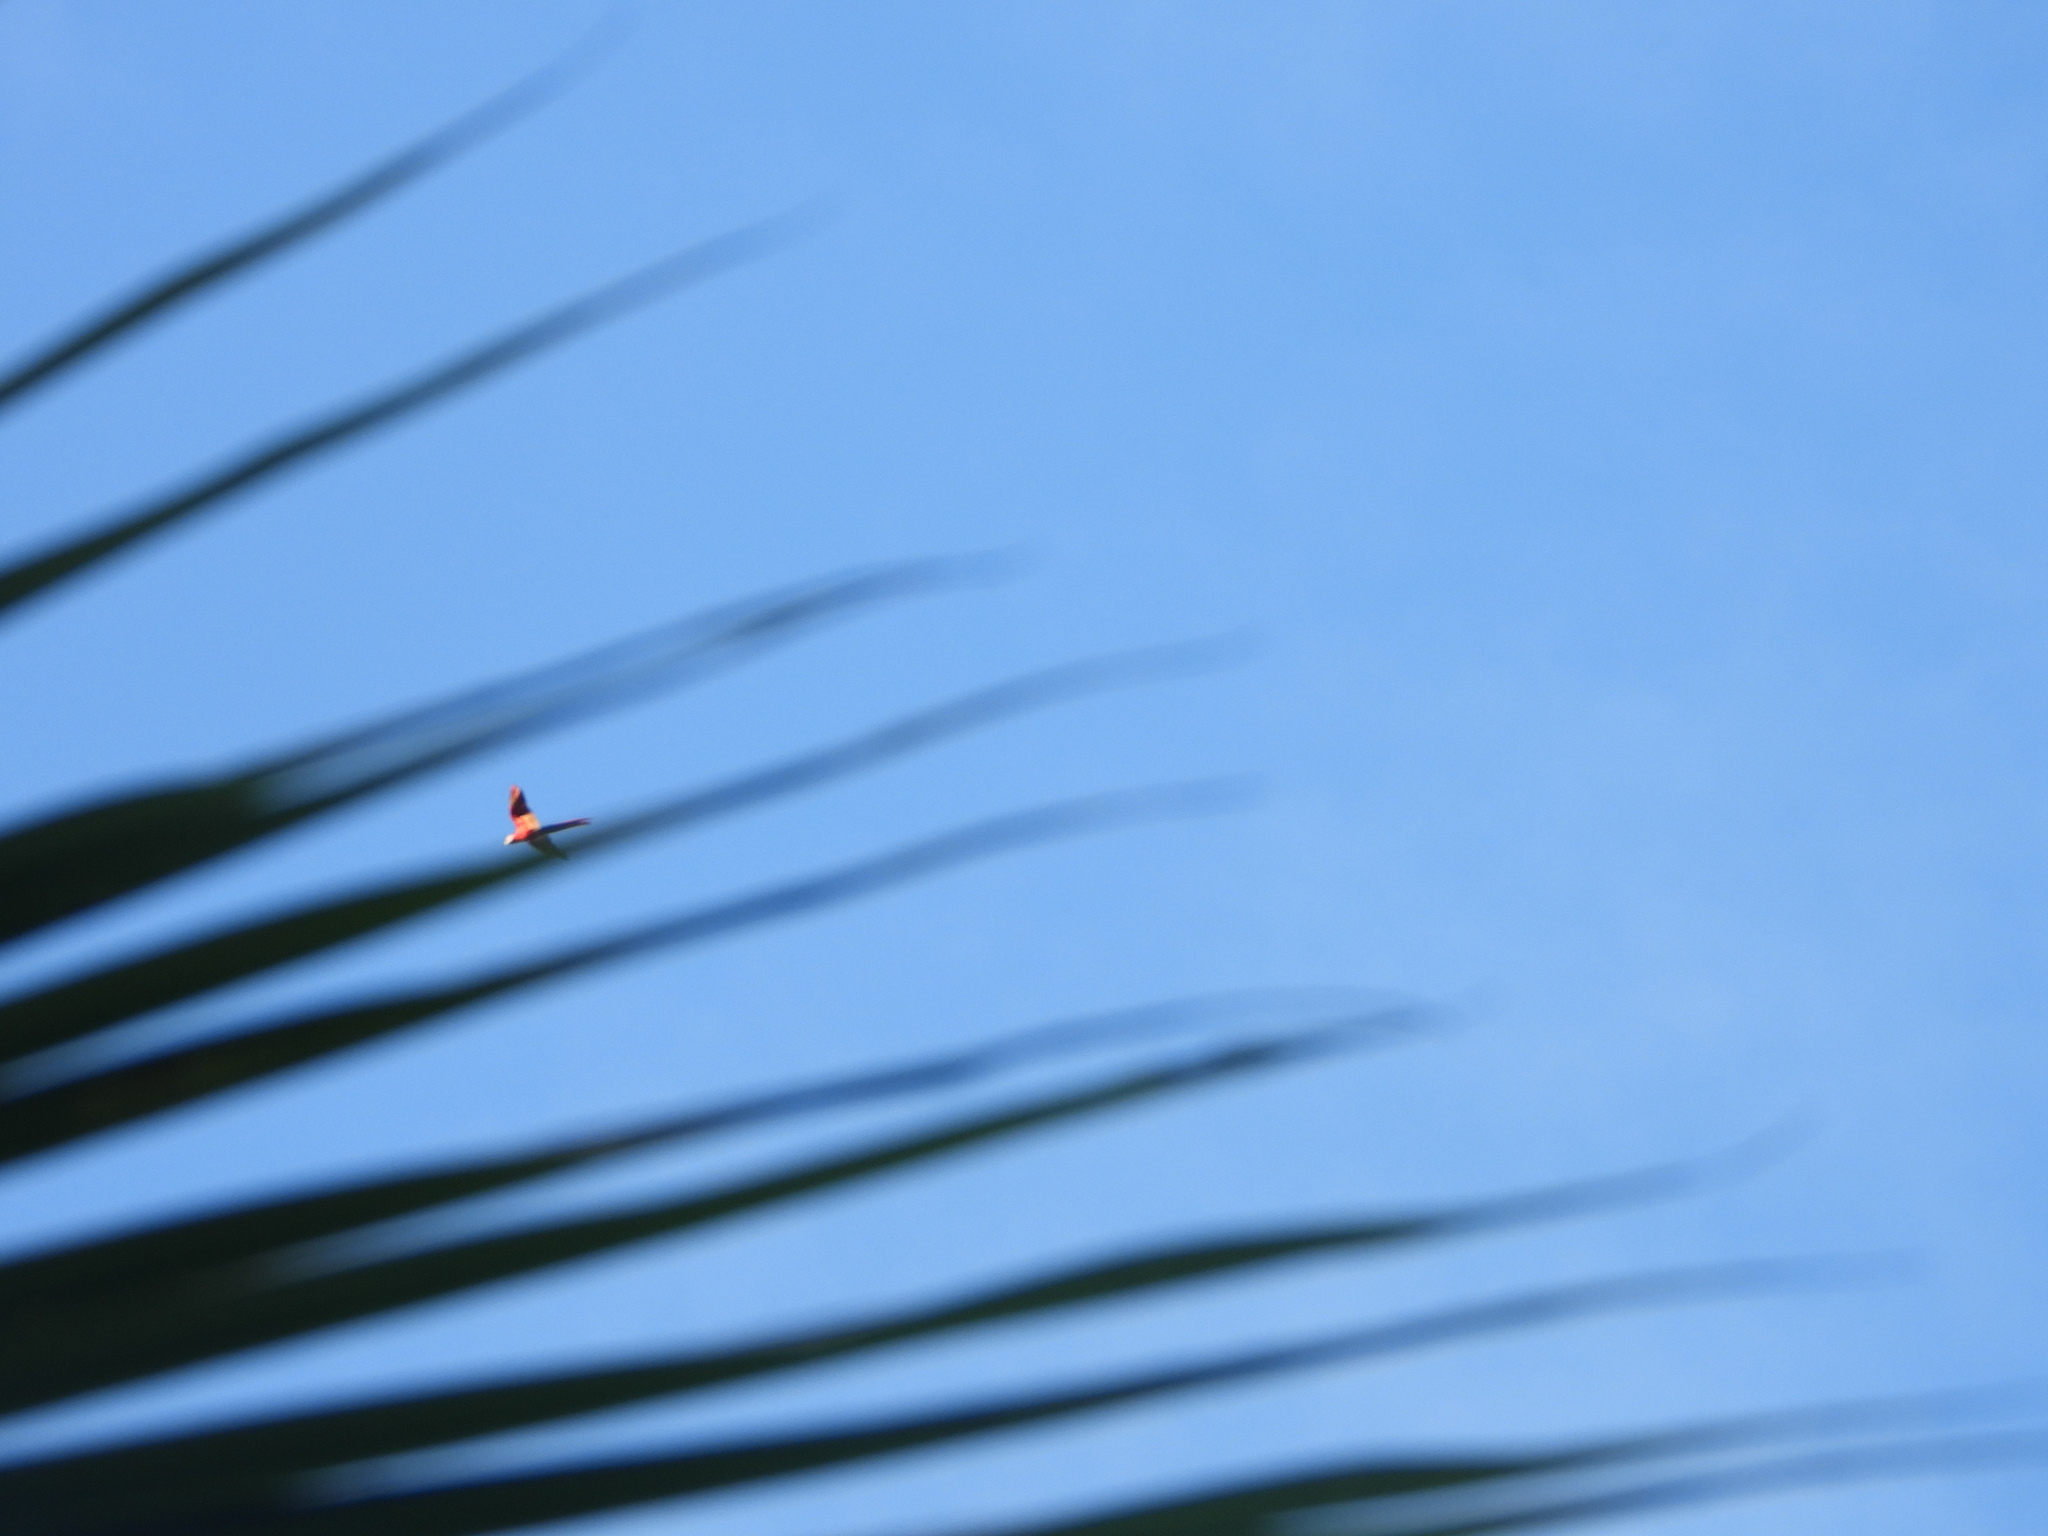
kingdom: Animalia
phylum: Chordata
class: Aves
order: Psittaciformes
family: Psittacidae
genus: Ara
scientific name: Ara macao
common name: Scarlet macaw
